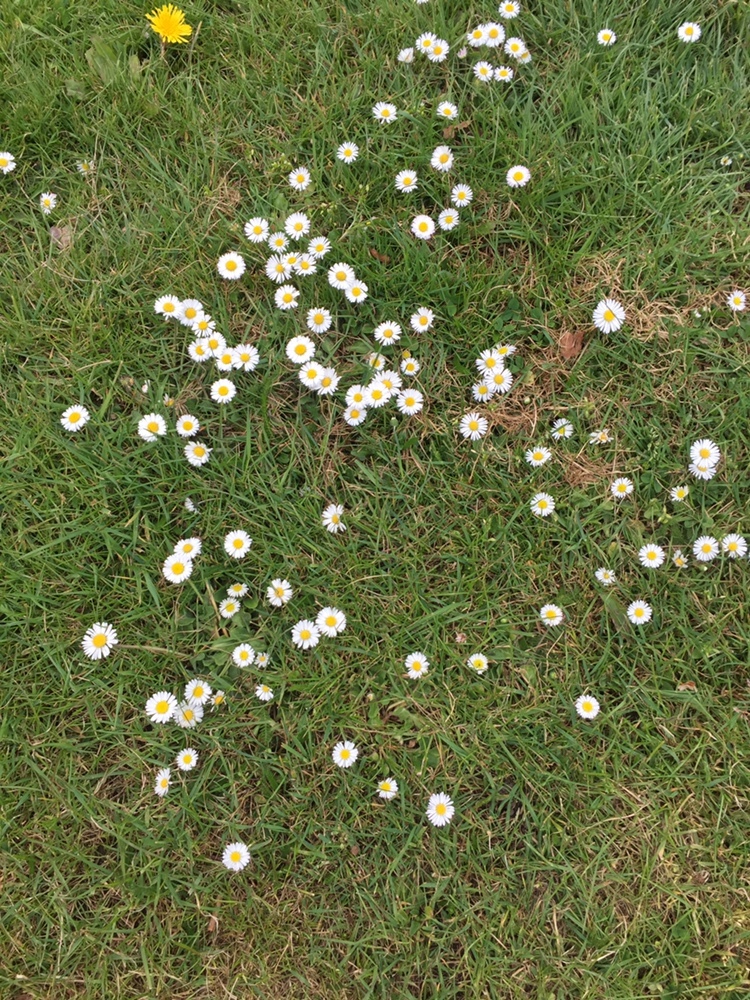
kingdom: Plantae
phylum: Tracheophyta
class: Magnoliopsida
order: Asterales
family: Asteraceae
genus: Bellis
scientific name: Bellis perennis
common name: Lawndaisy
